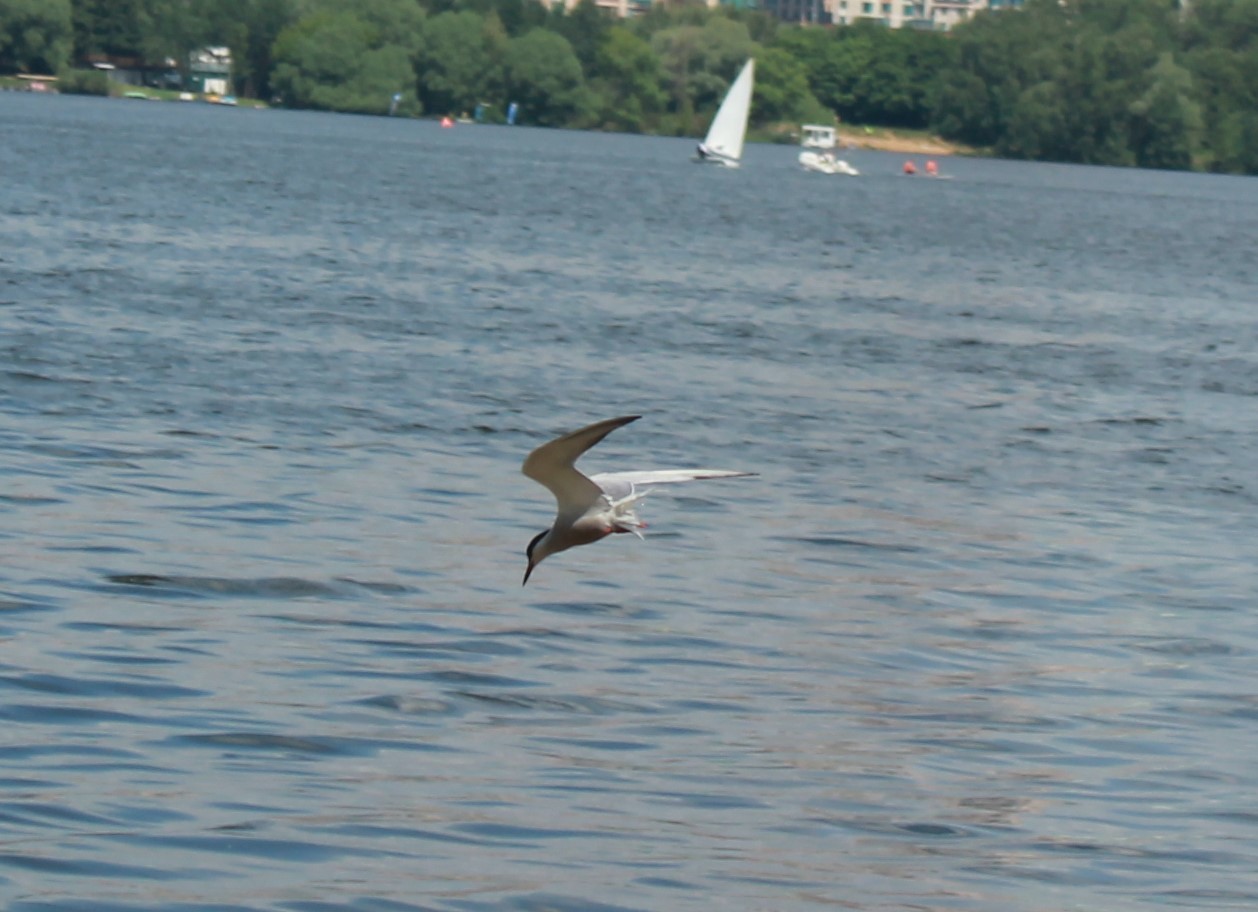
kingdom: Animalia
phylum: Chordata
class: Aves
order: Charadriiformes
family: Laridae
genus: Sterna
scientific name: Sterna hirundo
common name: Common tern
